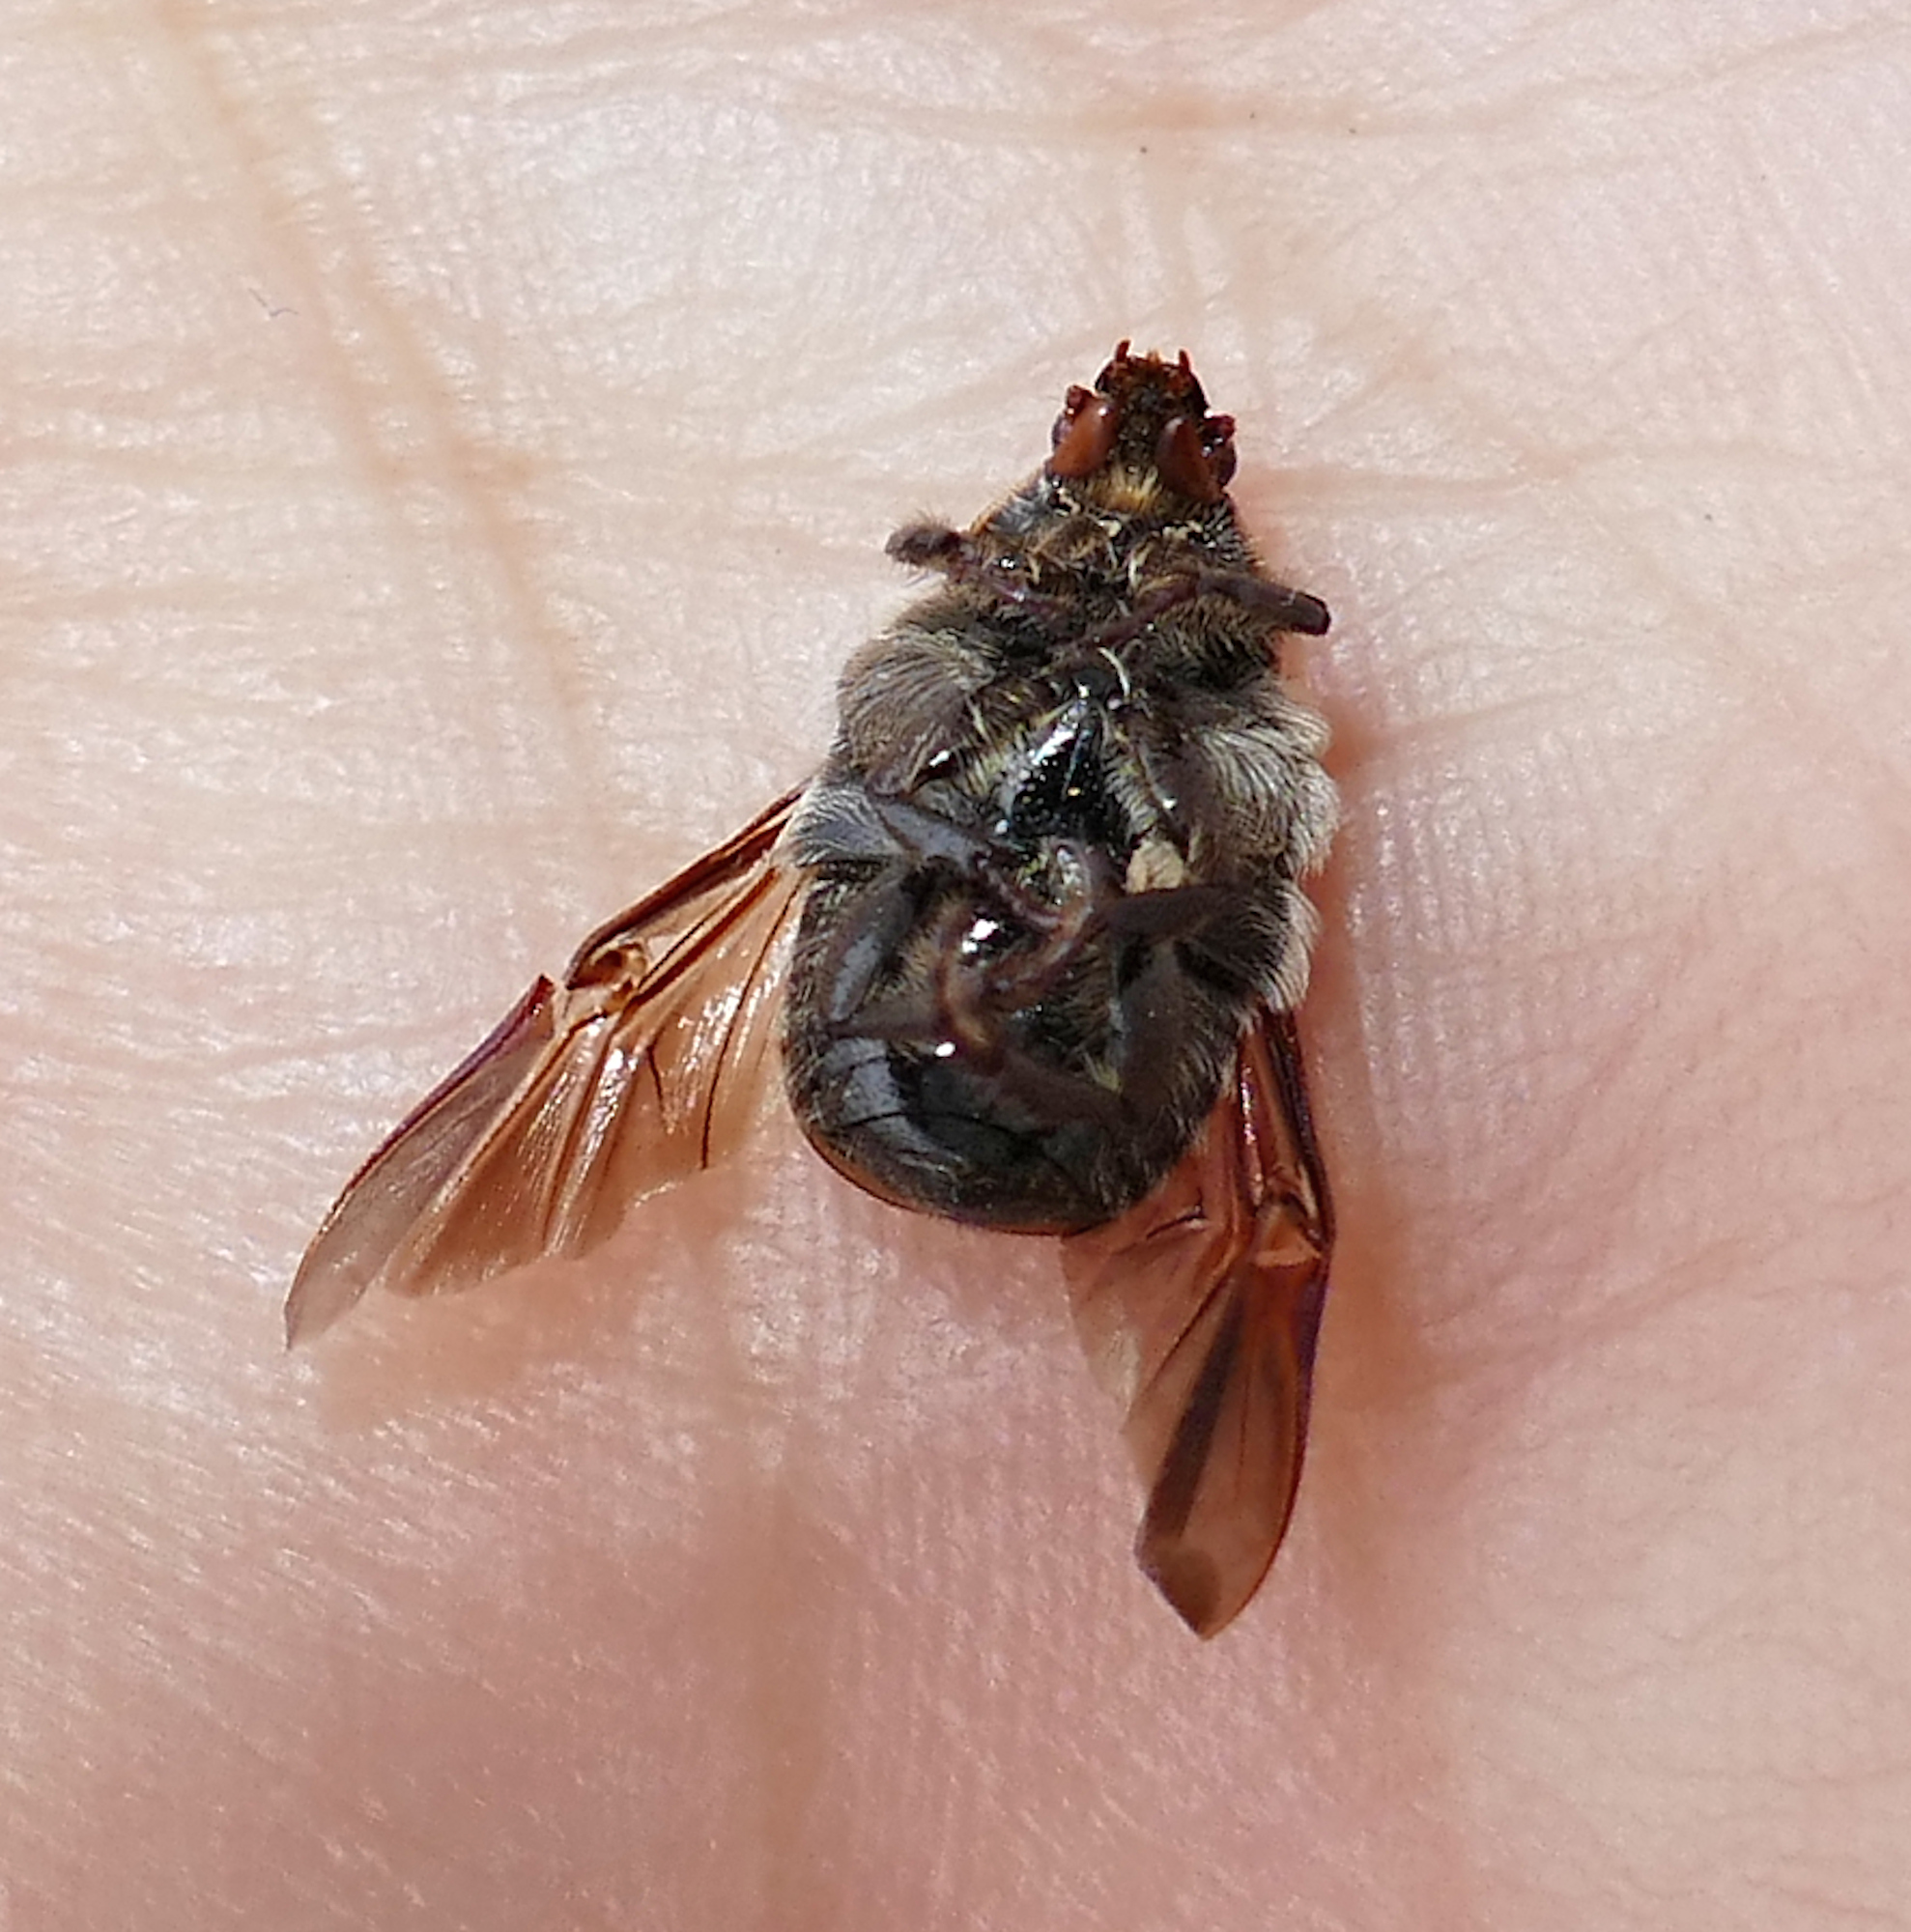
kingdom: Animalia
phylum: Arthropoda
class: Insecta
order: Coleoptera
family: Scarabaeidae
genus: Euphoria
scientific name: Euphoria kernii
